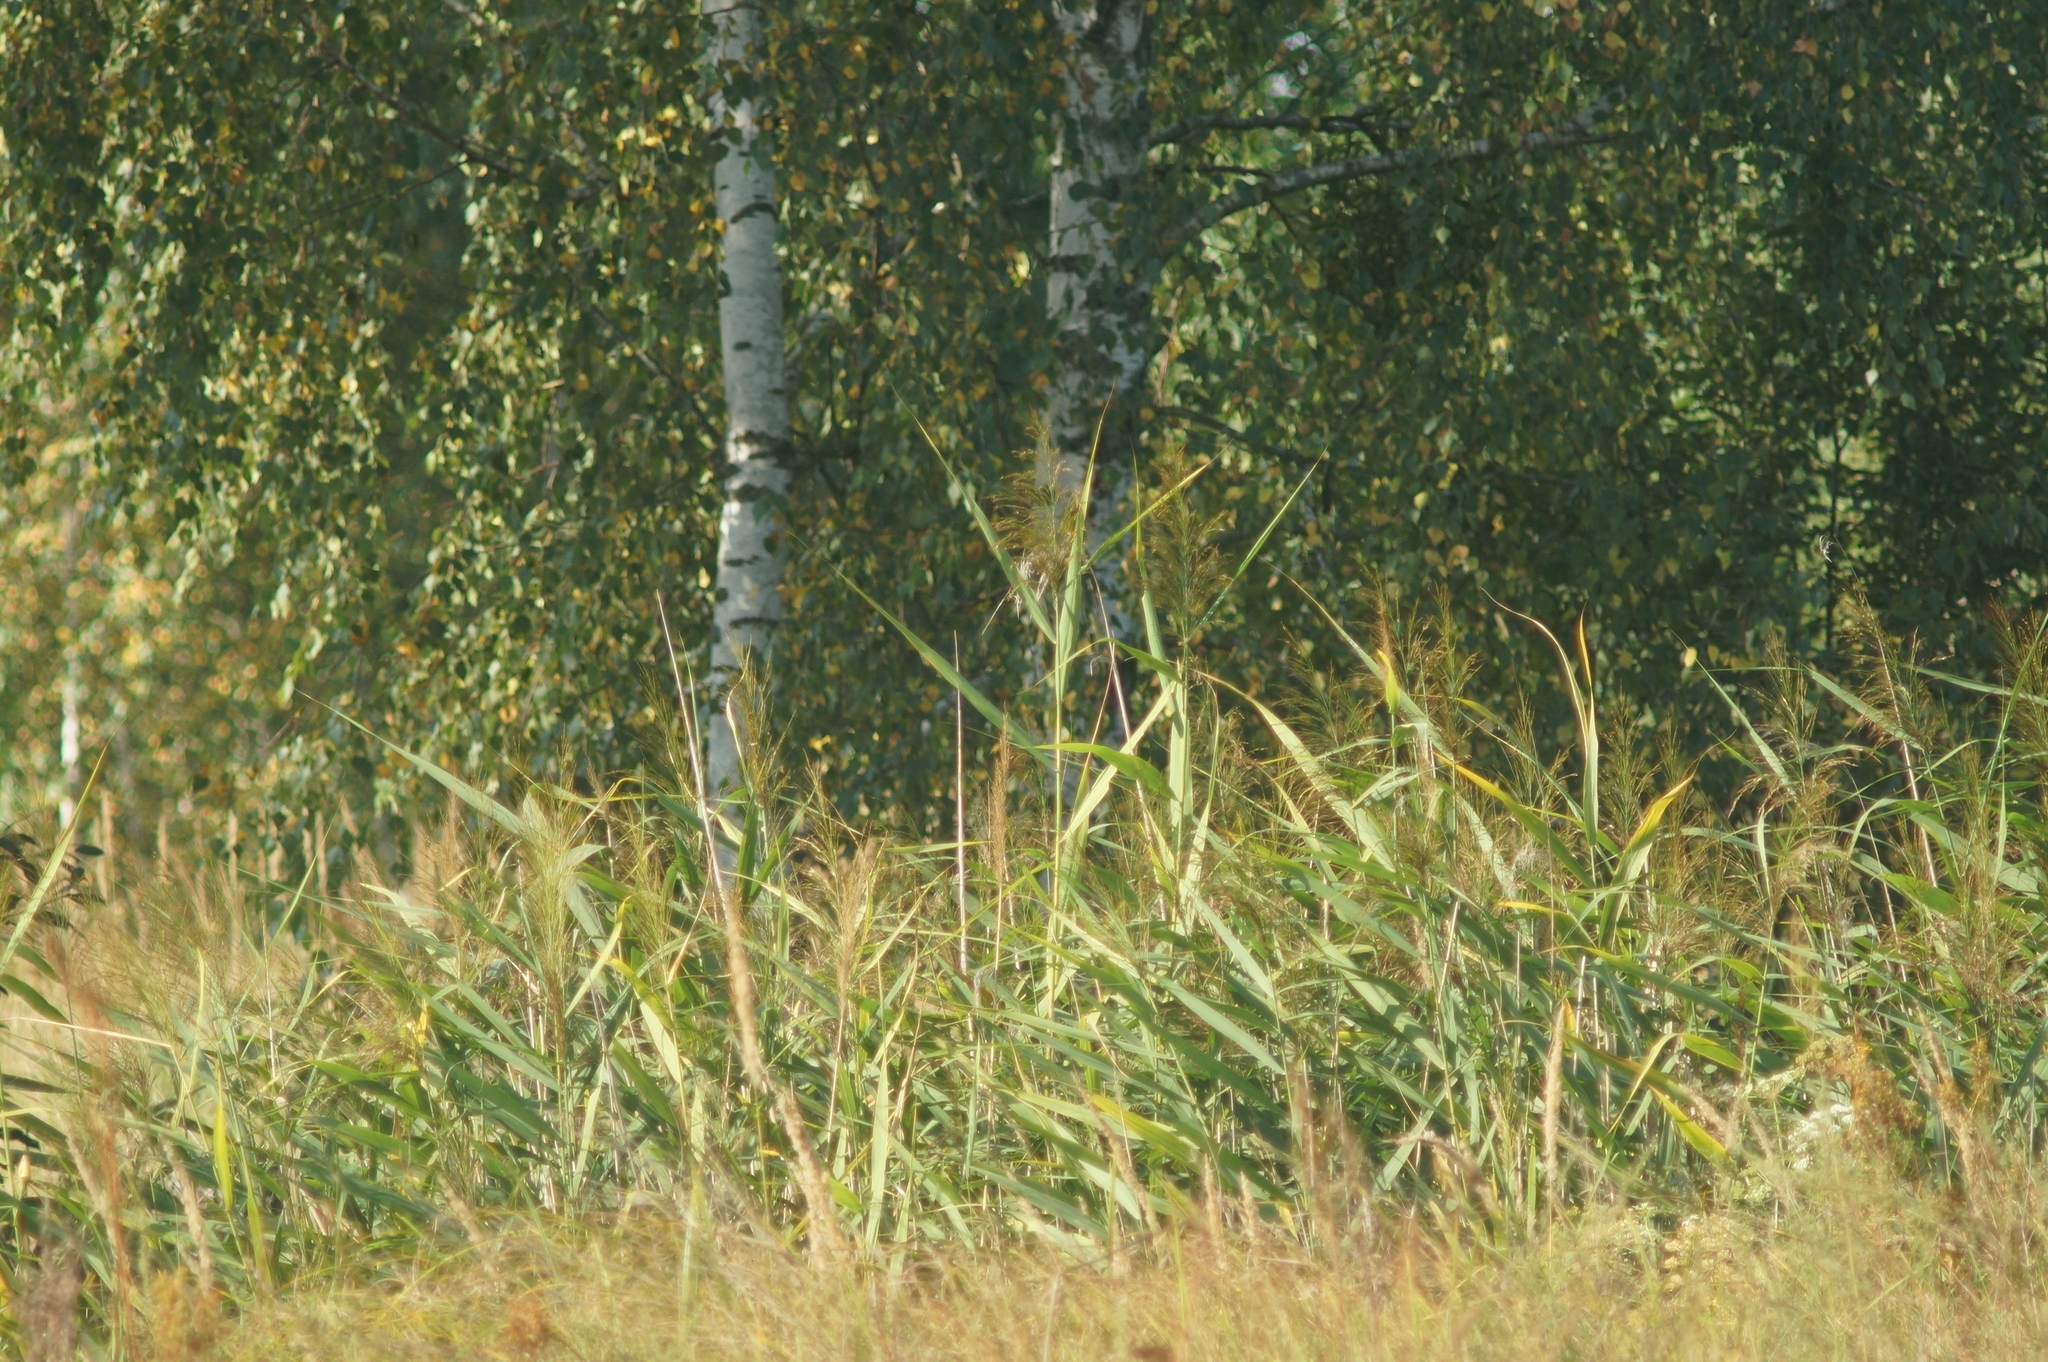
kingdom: Plantae
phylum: Tracheophyta
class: Liliopsida
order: Poales
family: Poaceae
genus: Phragmites
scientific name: Phragmites australis
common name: Common reed
